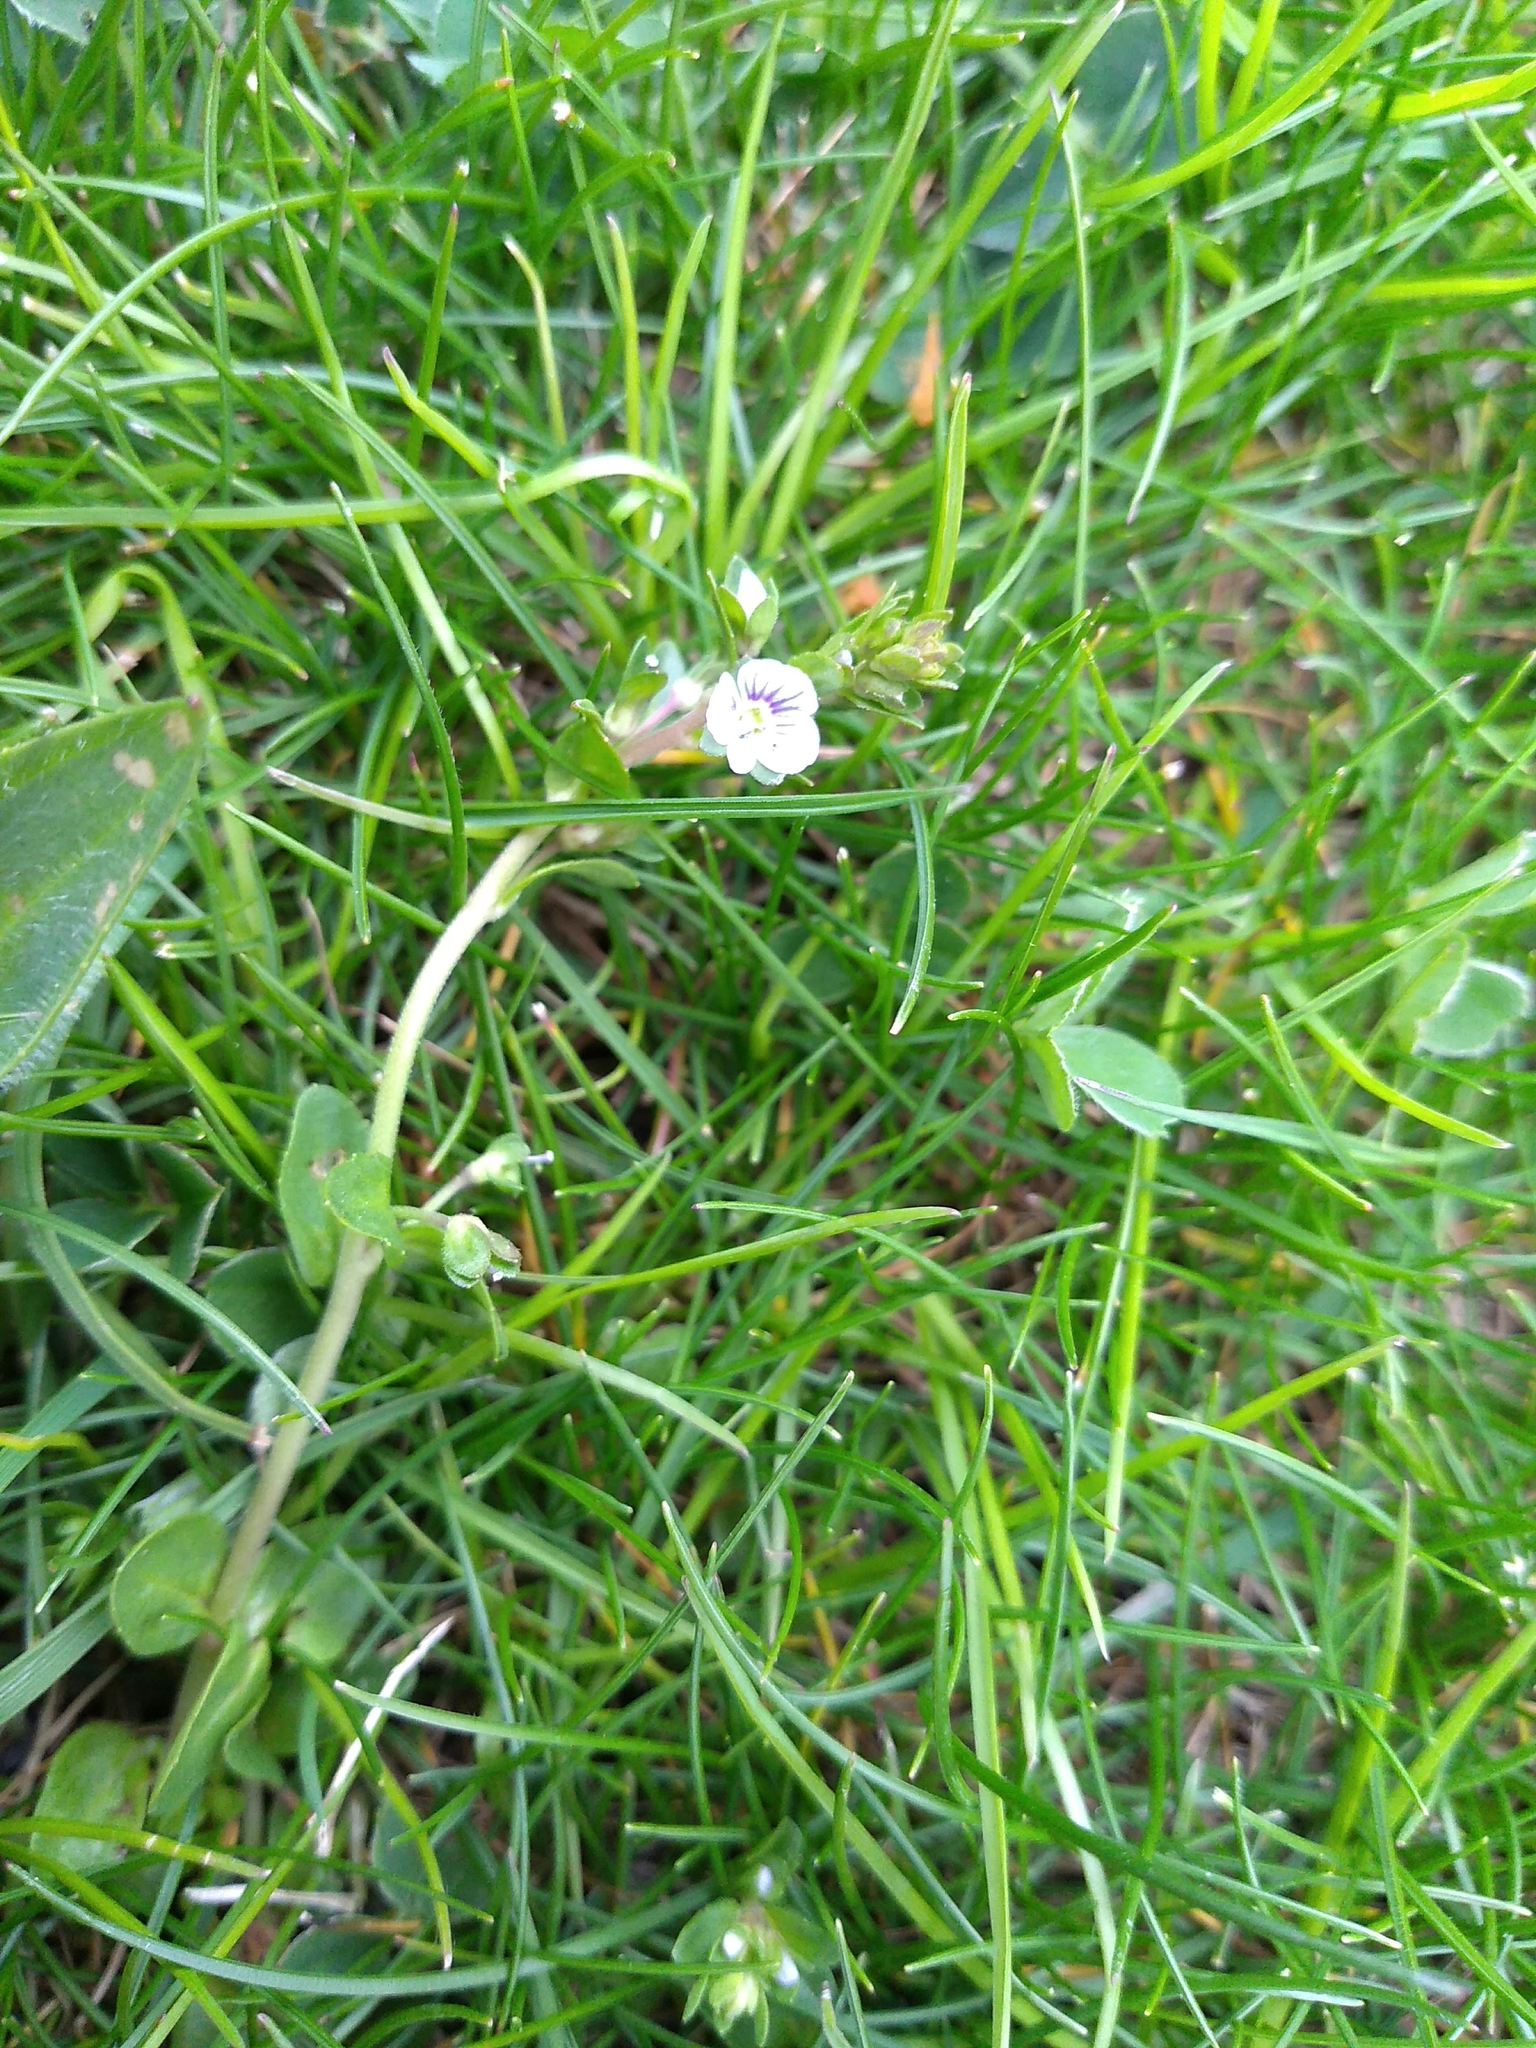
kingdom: Plantae
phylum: Tracheophyta
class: Magnoliopsida
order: Lamiales
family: Plantaginaceae
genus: Veronica
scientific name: Veronica serpyllifolia
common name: Thyme-leaved speedwell
